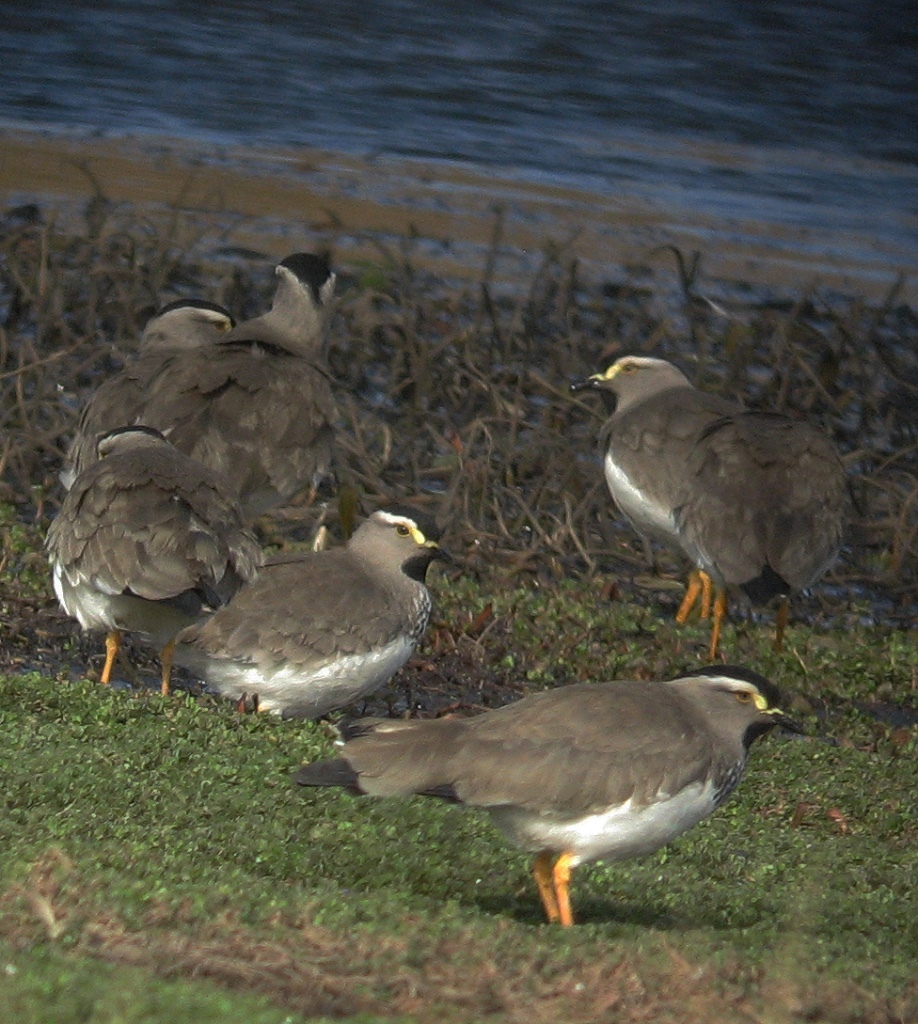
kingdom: Animalia
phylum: Chordata
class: Aves
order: Charadriiformes
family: Charadriidae
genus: Vanellus
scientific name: Vanellus melanocephalus
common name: Spot-breasted lapwing
